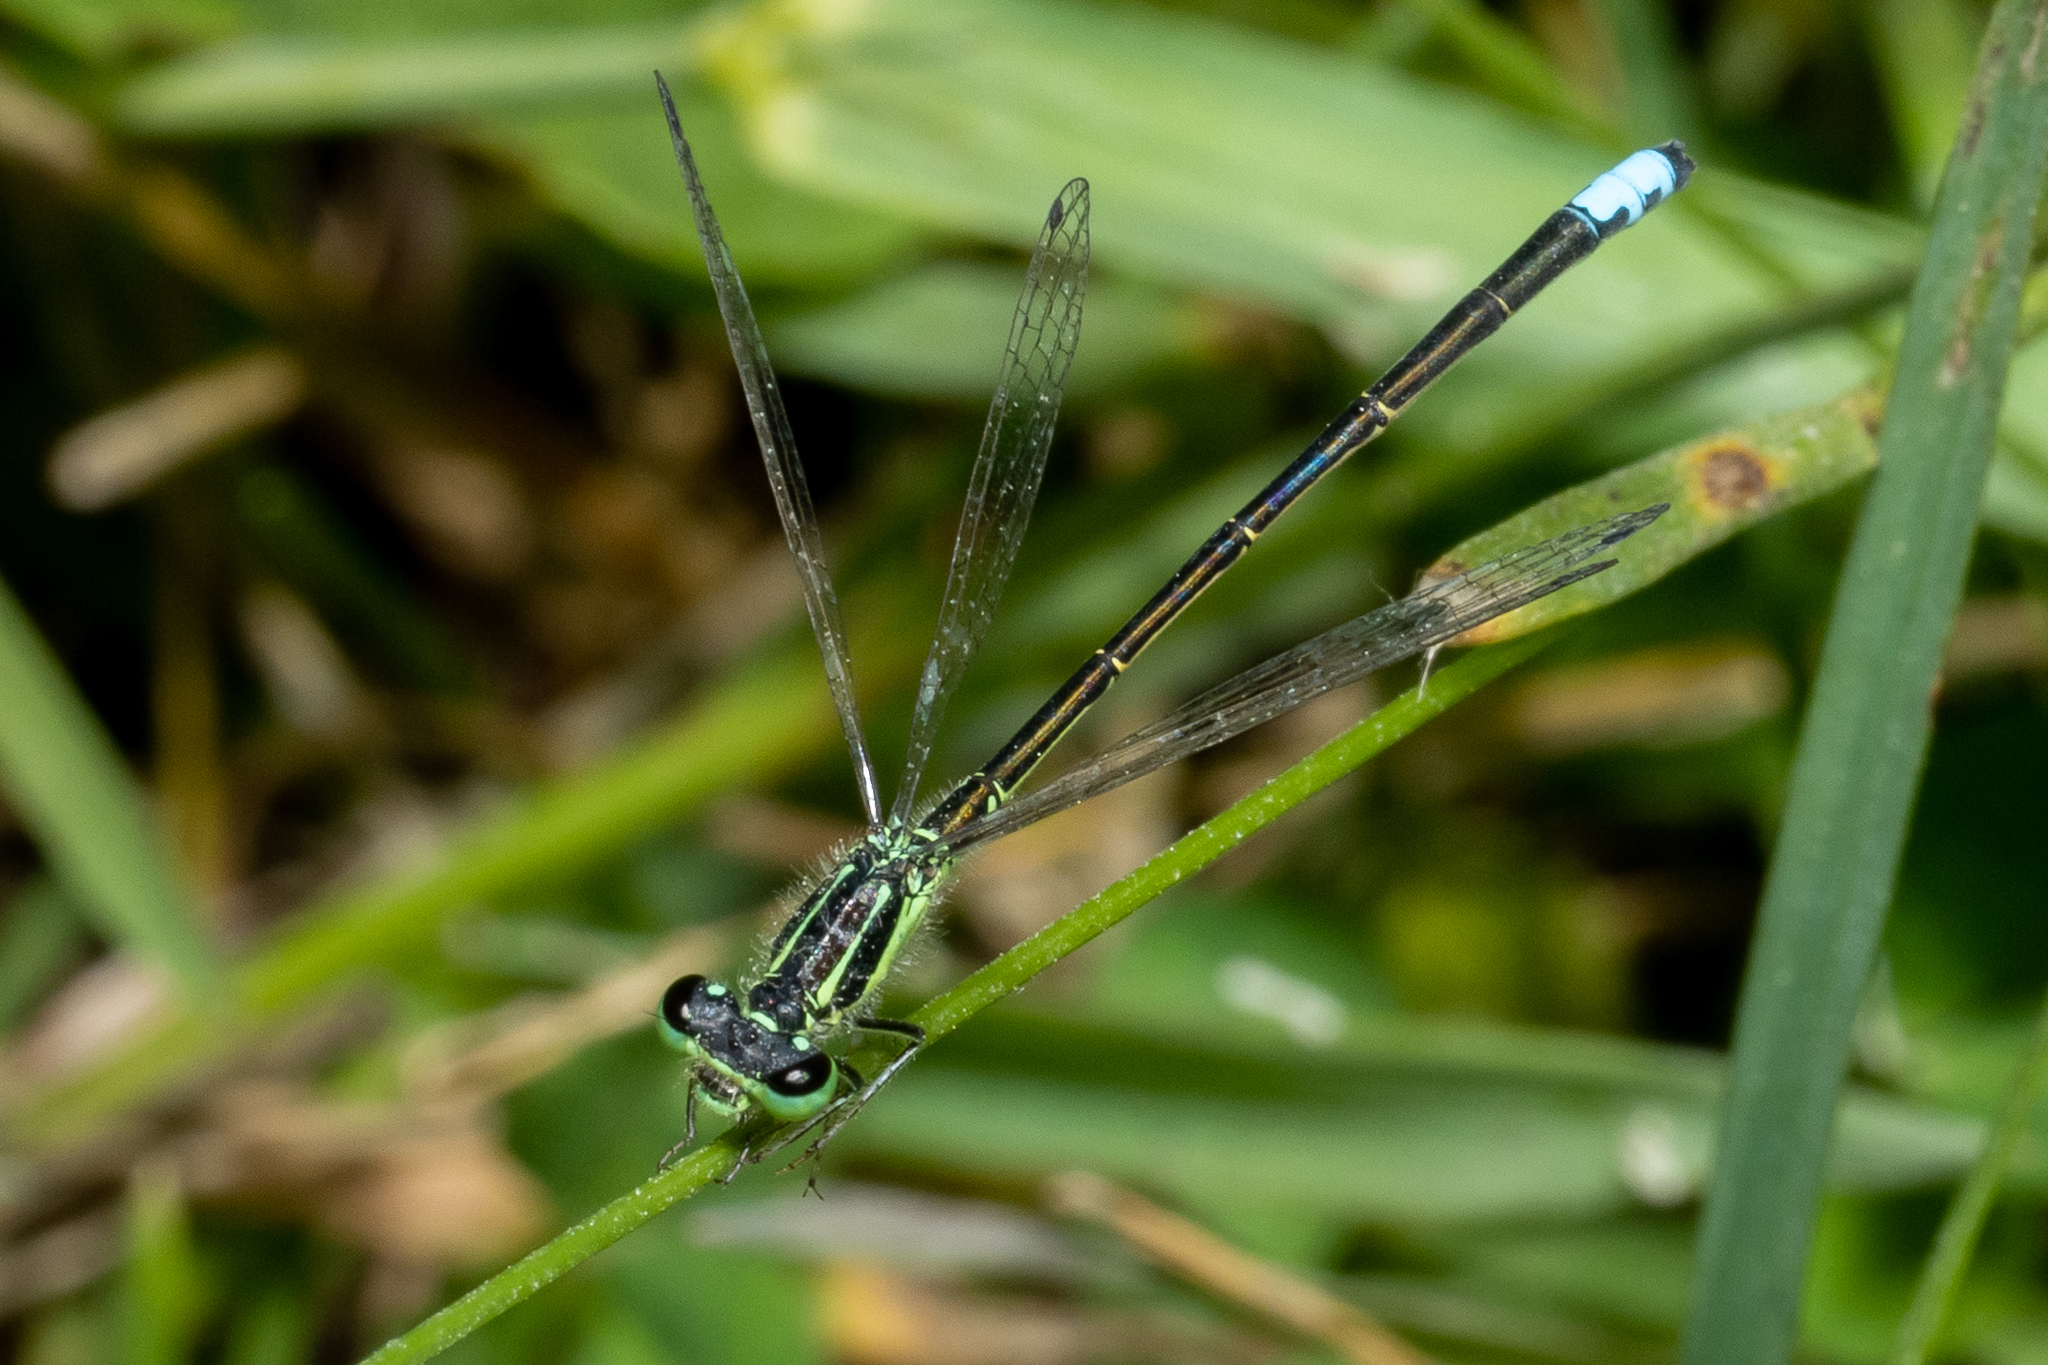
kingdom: Animalia
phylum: Arthropoda
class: Insecta
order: Odonata
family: Coenagrionidae
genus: Ischnura
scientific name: Ischnura verticalis
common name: Eastern forktail
